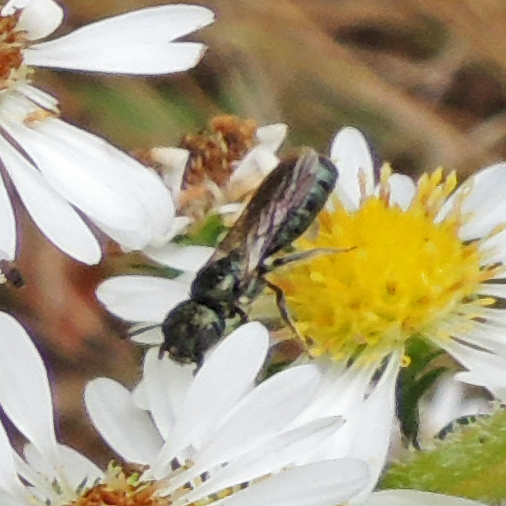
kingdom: Animalia
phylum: Arthropoda
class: Insecta
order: Hymenoptera
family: Apidae
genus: Ceratina
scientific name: Ceratina calcarata
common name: Spurred carpenter bee
